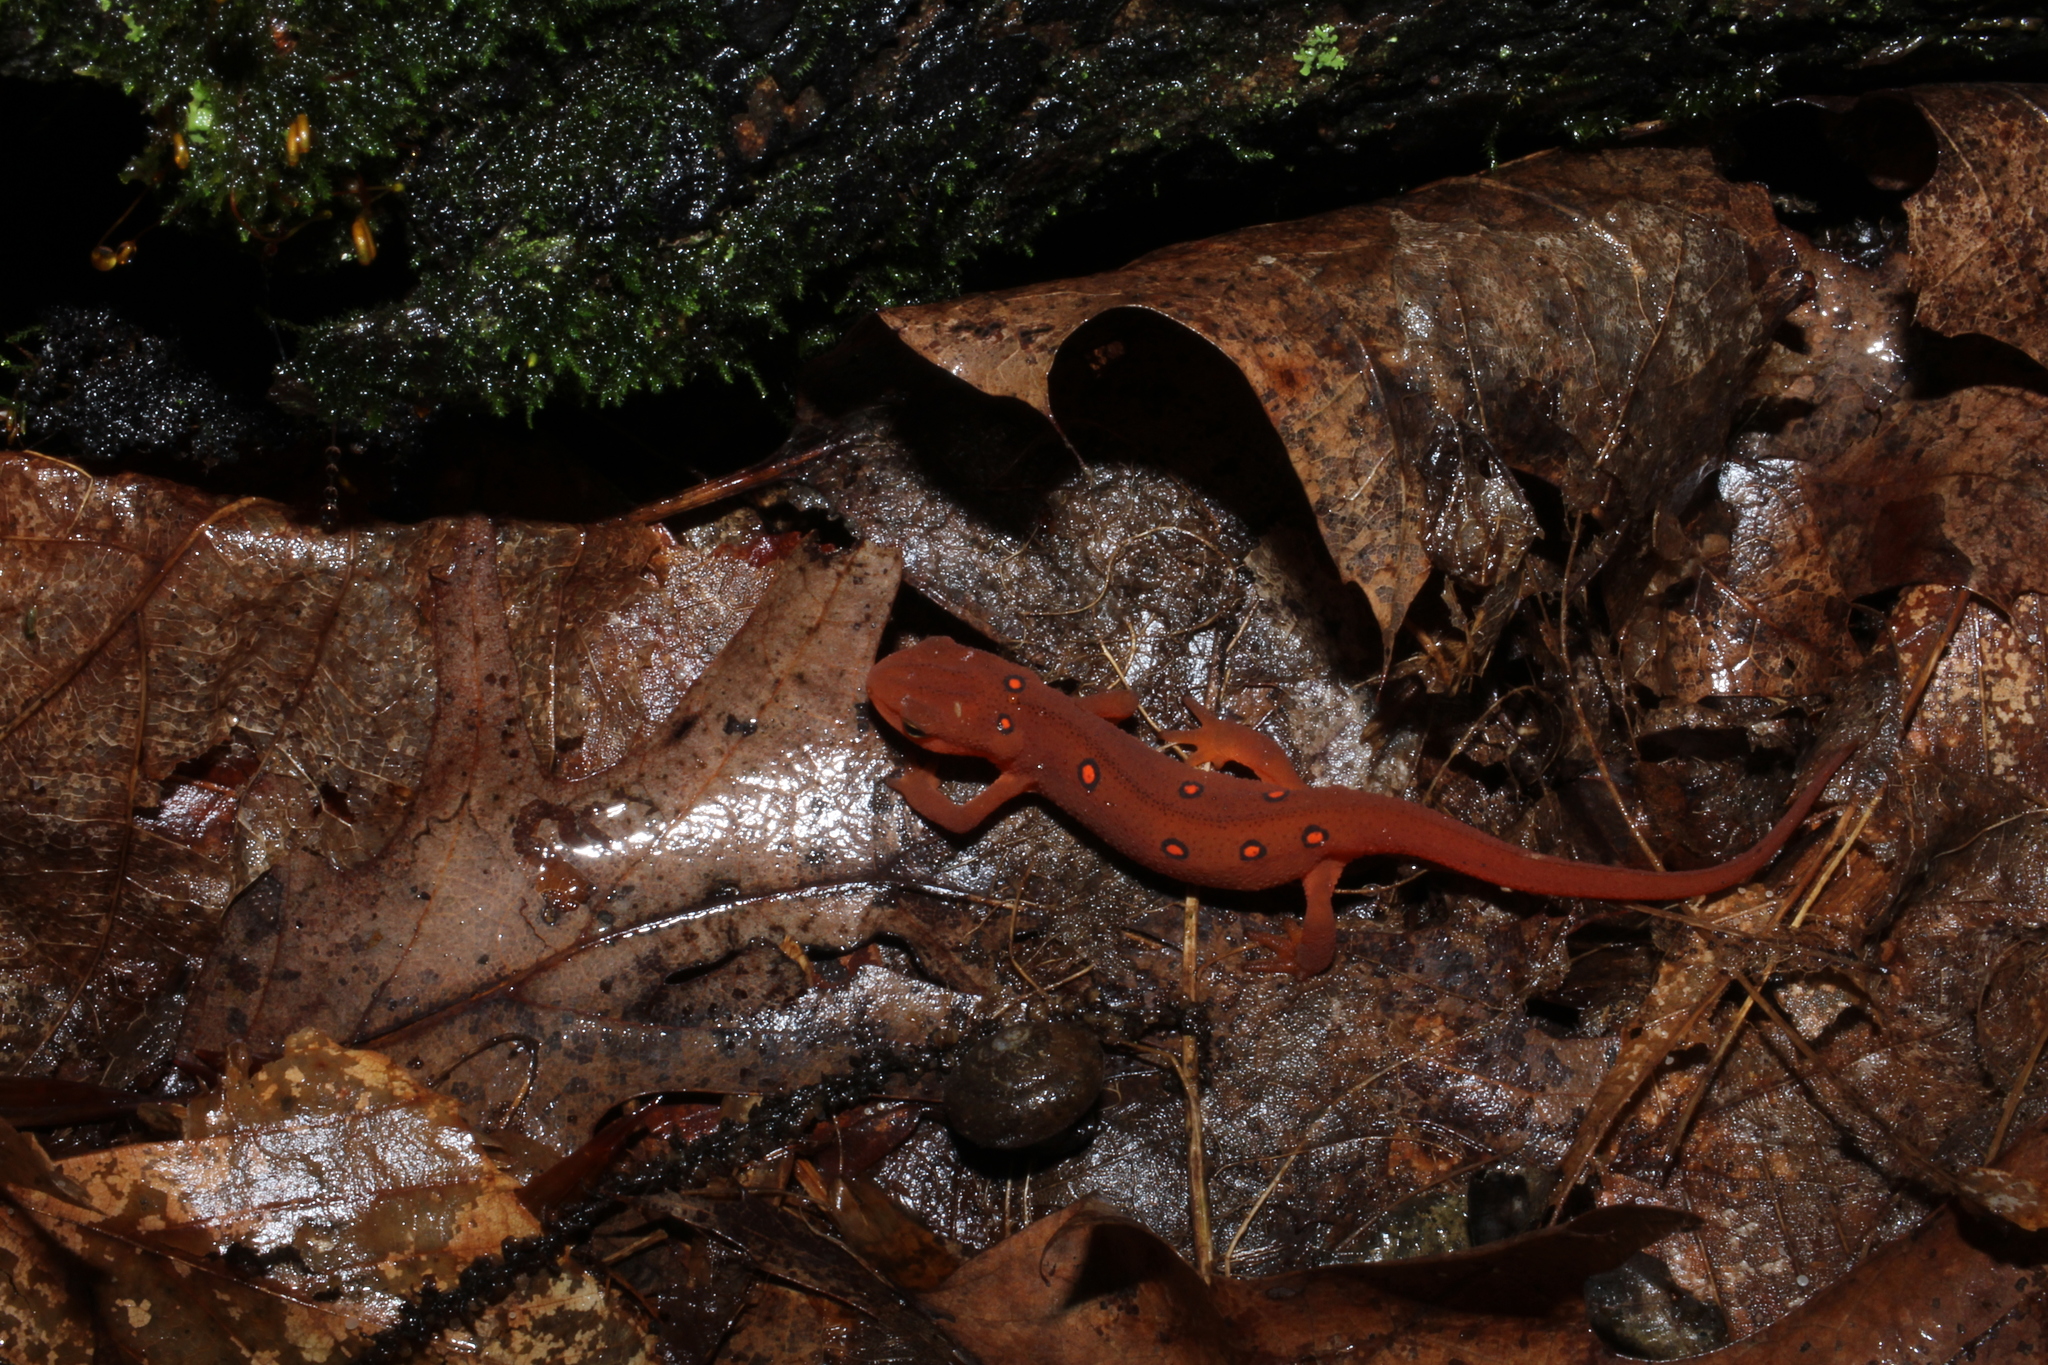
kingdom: Animalia
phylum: Chordata
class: Amphibia
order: Caudata
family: Salamandridae
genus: Notophthalmus
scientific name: Notophthalmus viridescens
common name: Eastern newt
